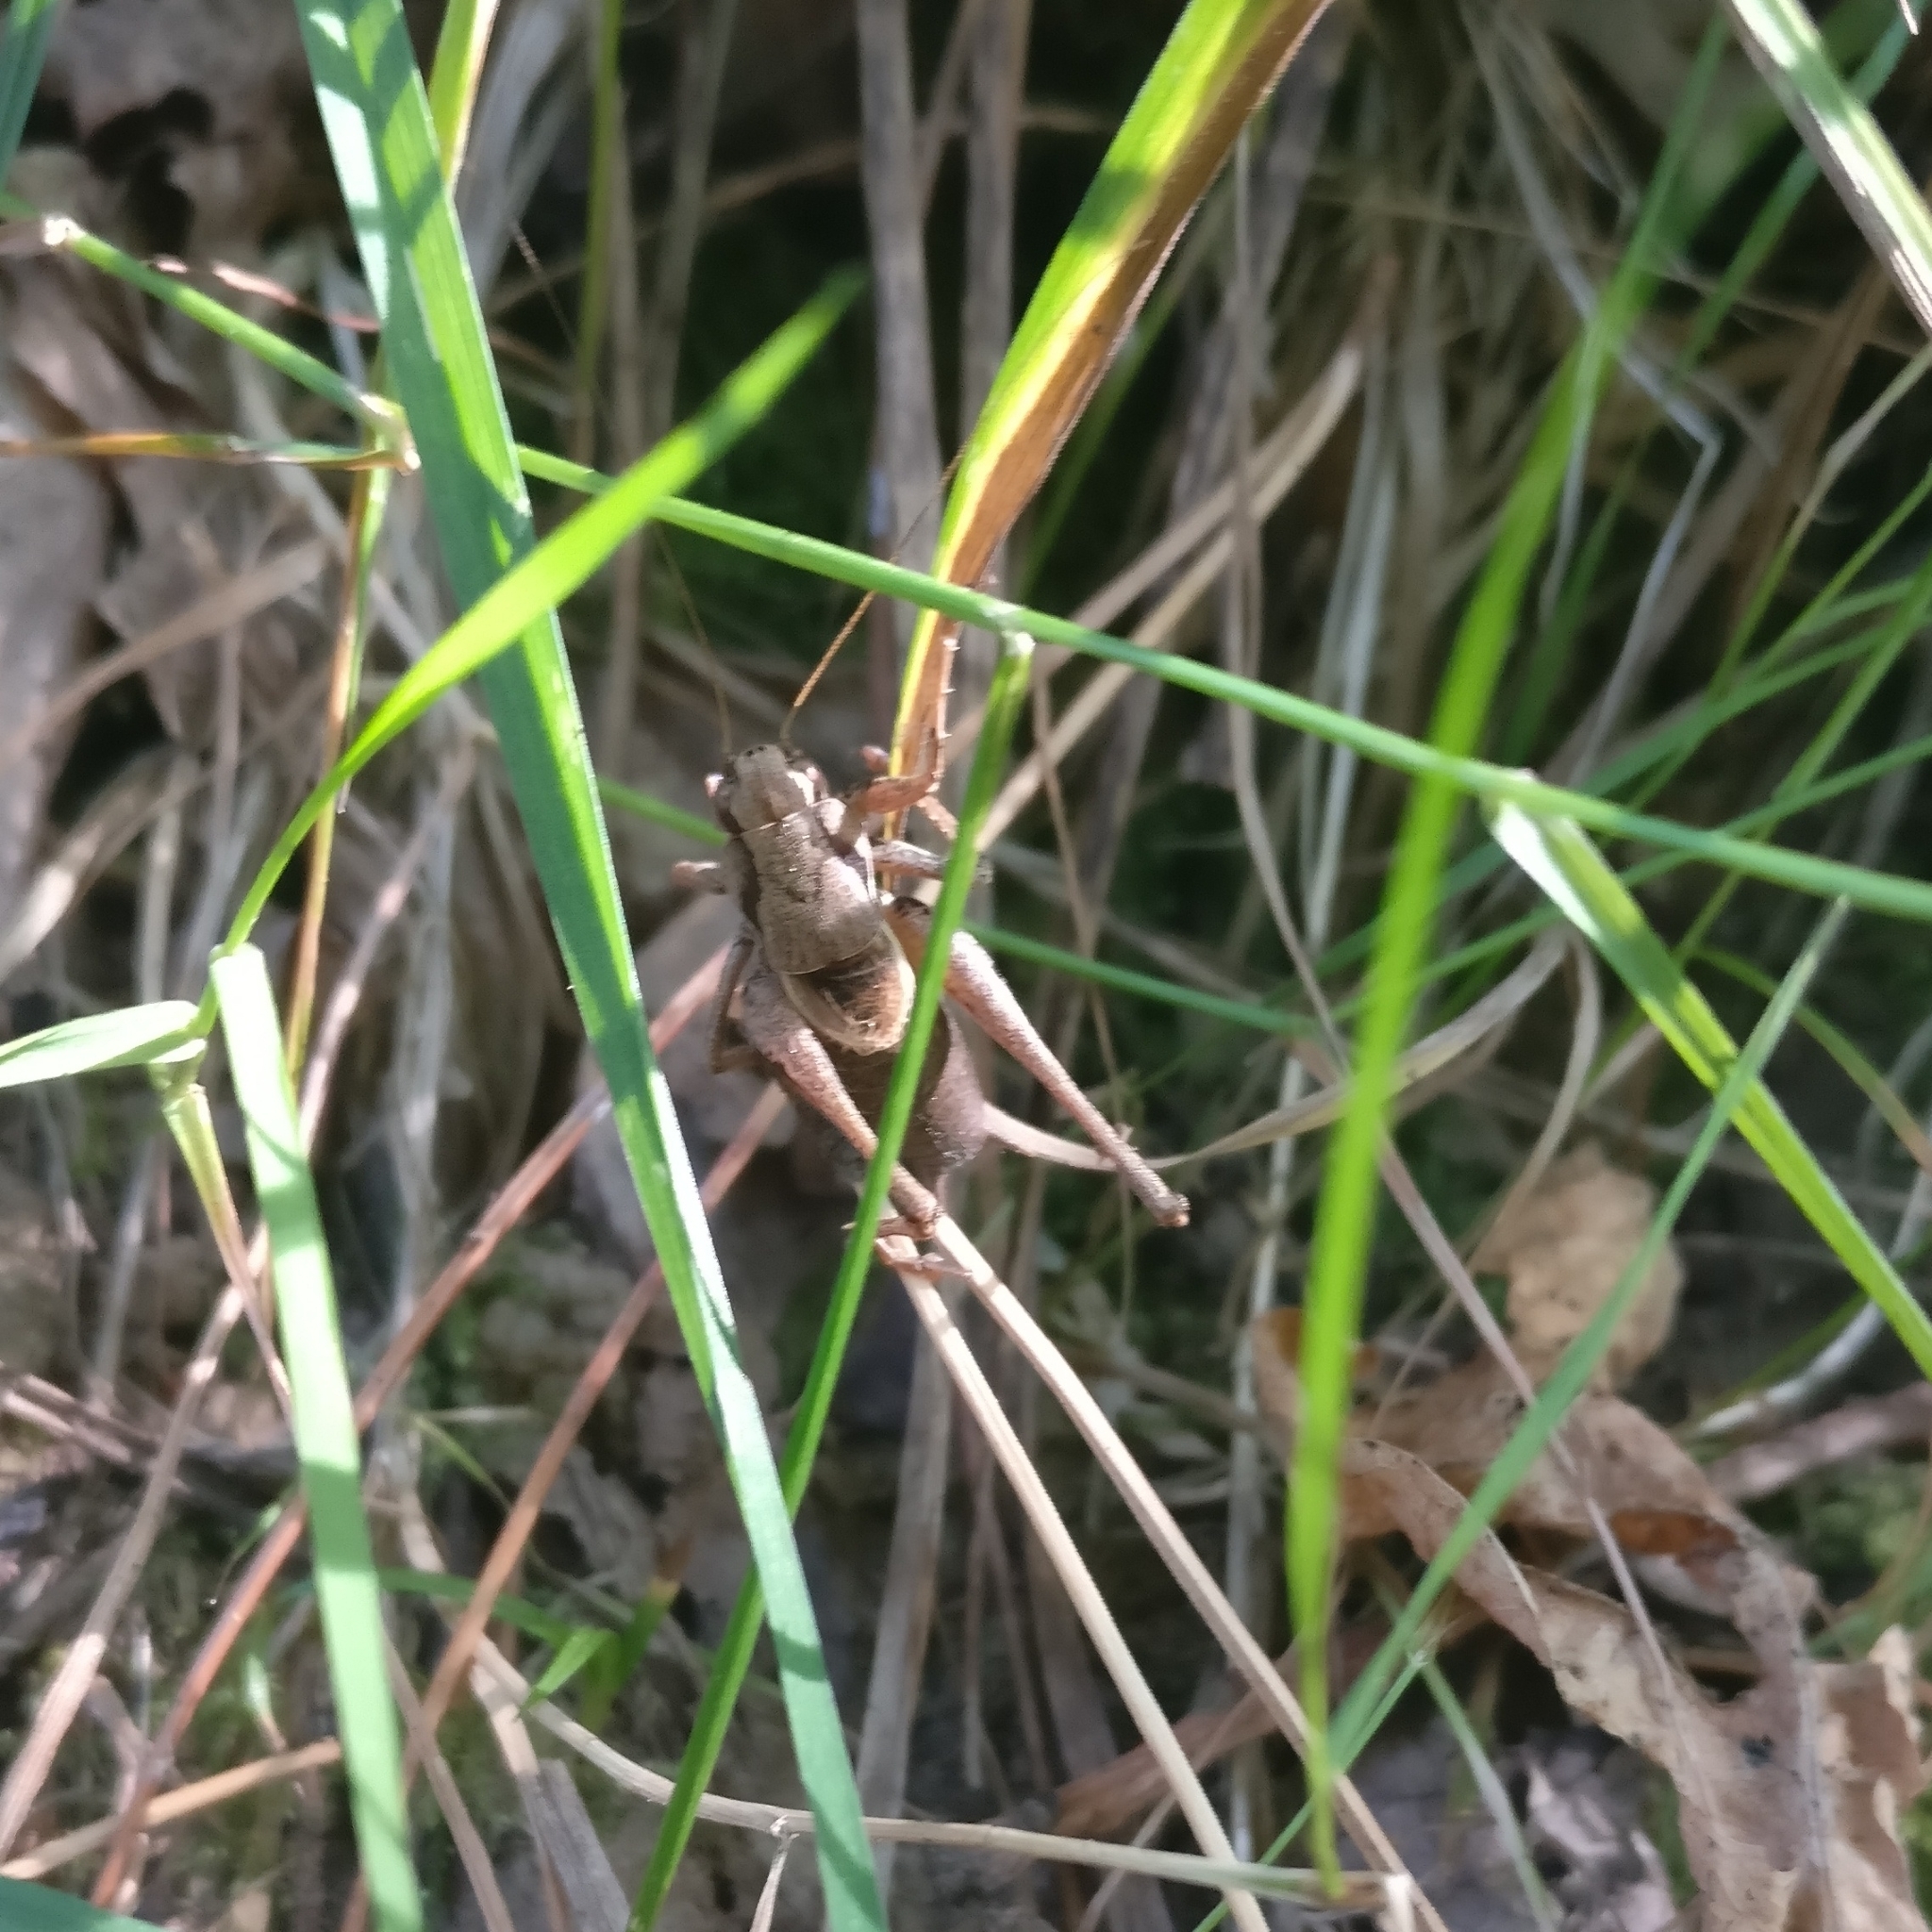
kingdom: Animalia
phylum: Arthropoda
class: Insecta
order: Orthoptera
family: Tettigoniidae
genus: Pholidoptera
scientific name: Pholidoptera griseoaptera
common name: Dark bush-cricket
